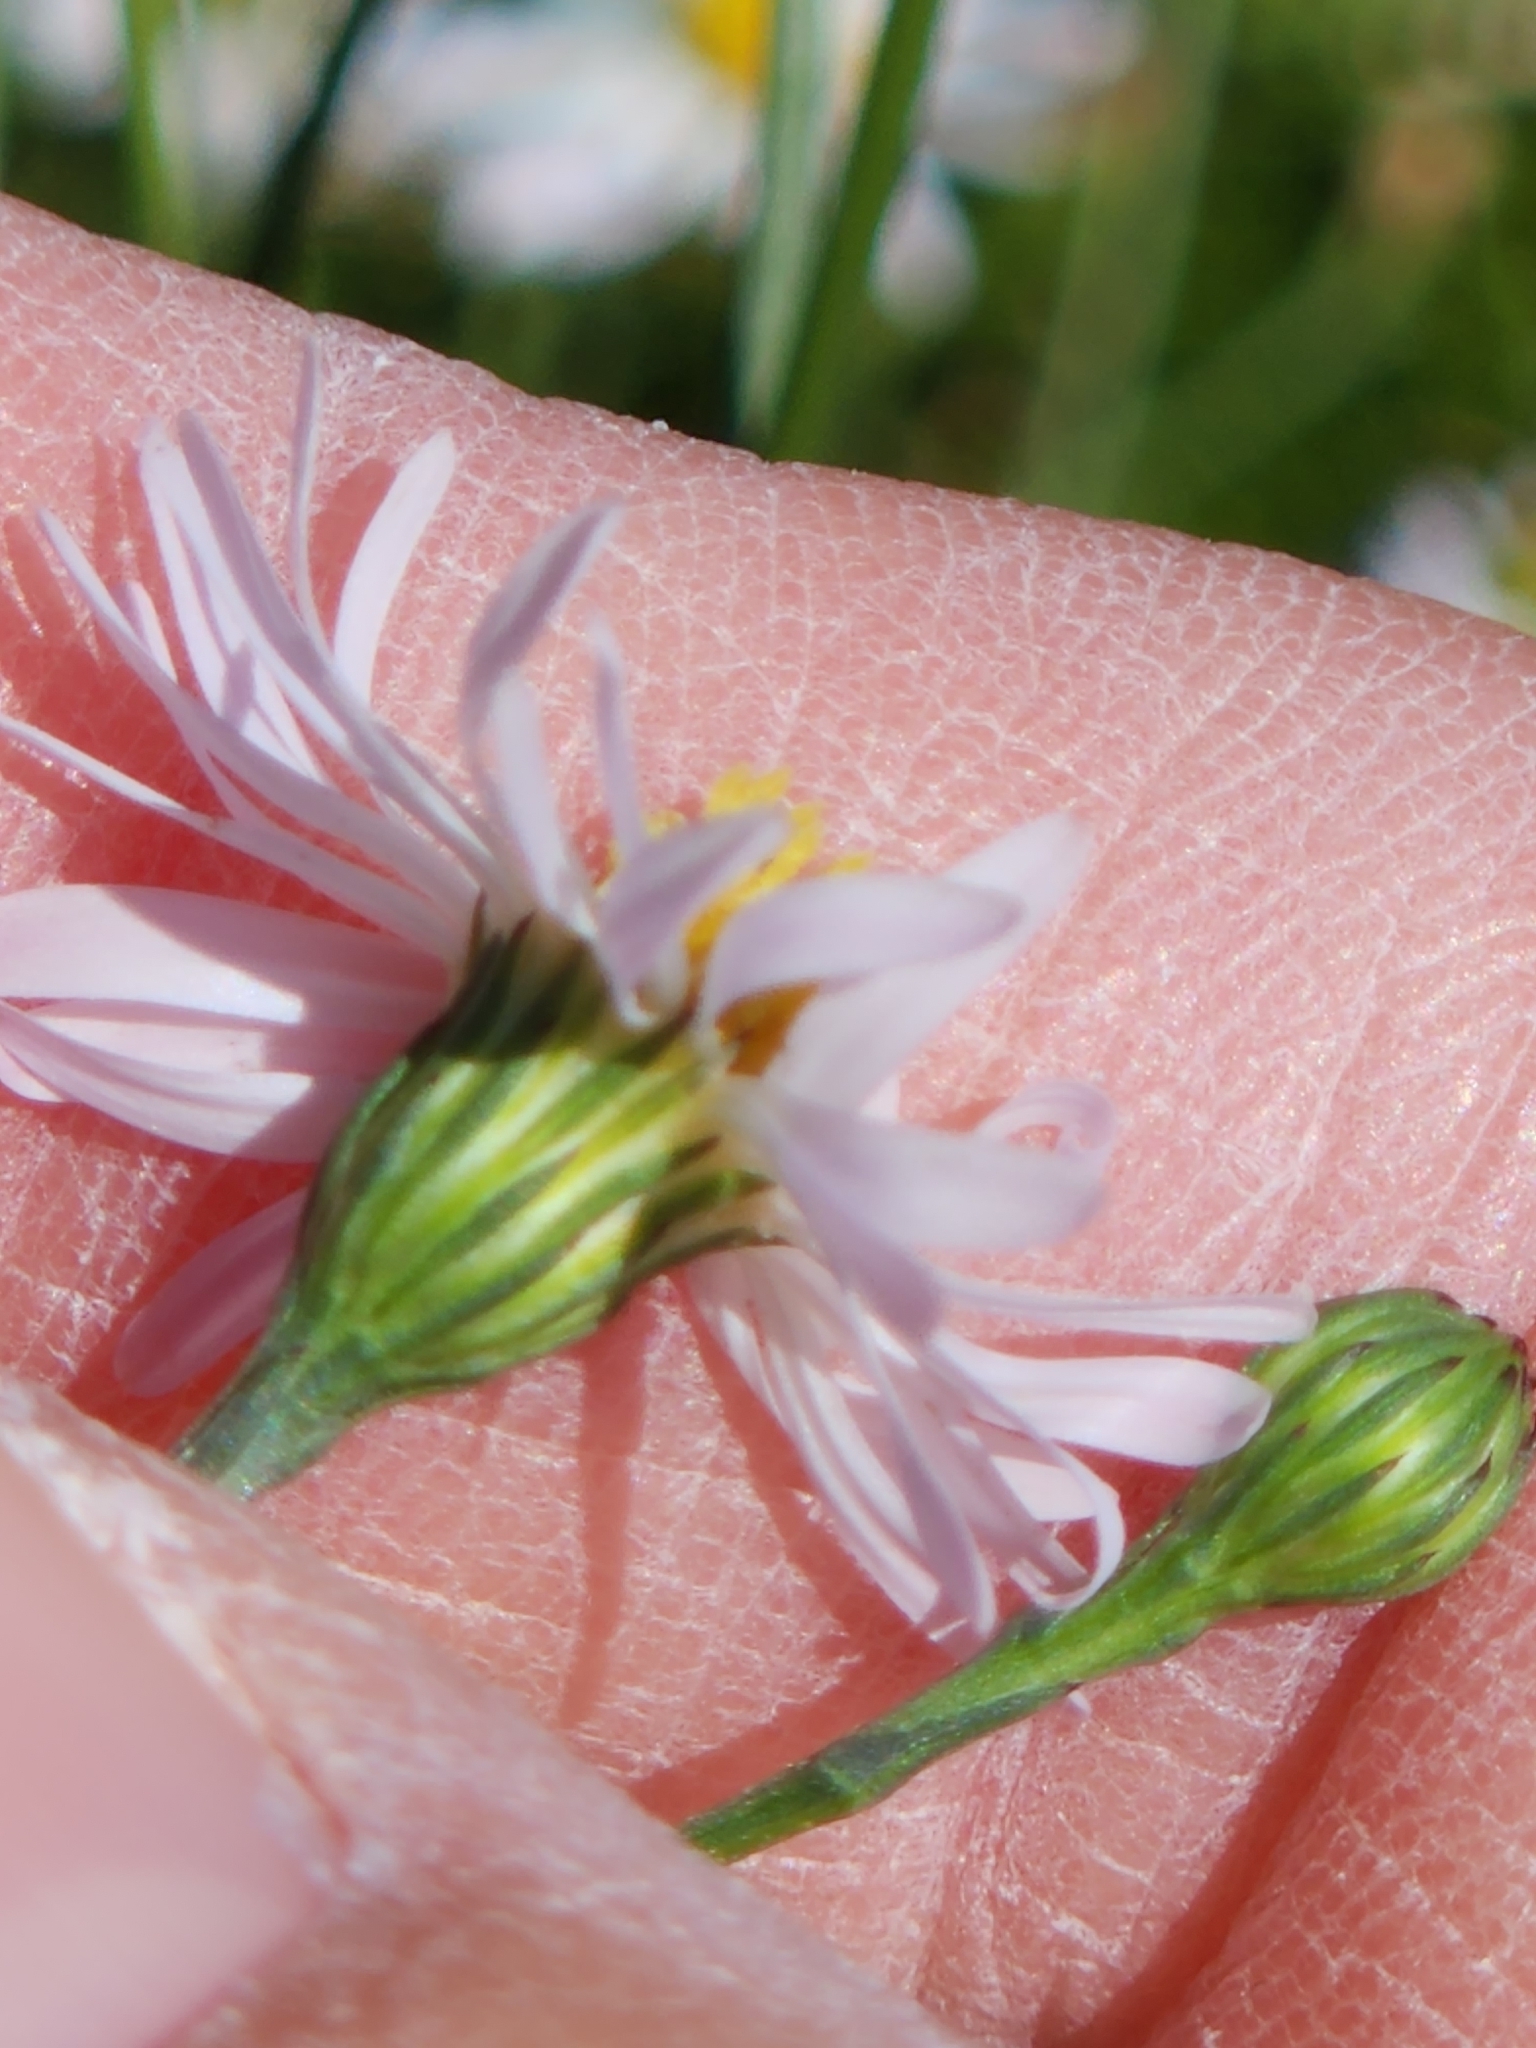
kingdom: Plantae
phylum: Tracheophyta
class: Magnoliopsida
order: Asterales
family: Asteraceae
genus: Symphyotrichum
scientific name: Symphyotrichum divaricatum
